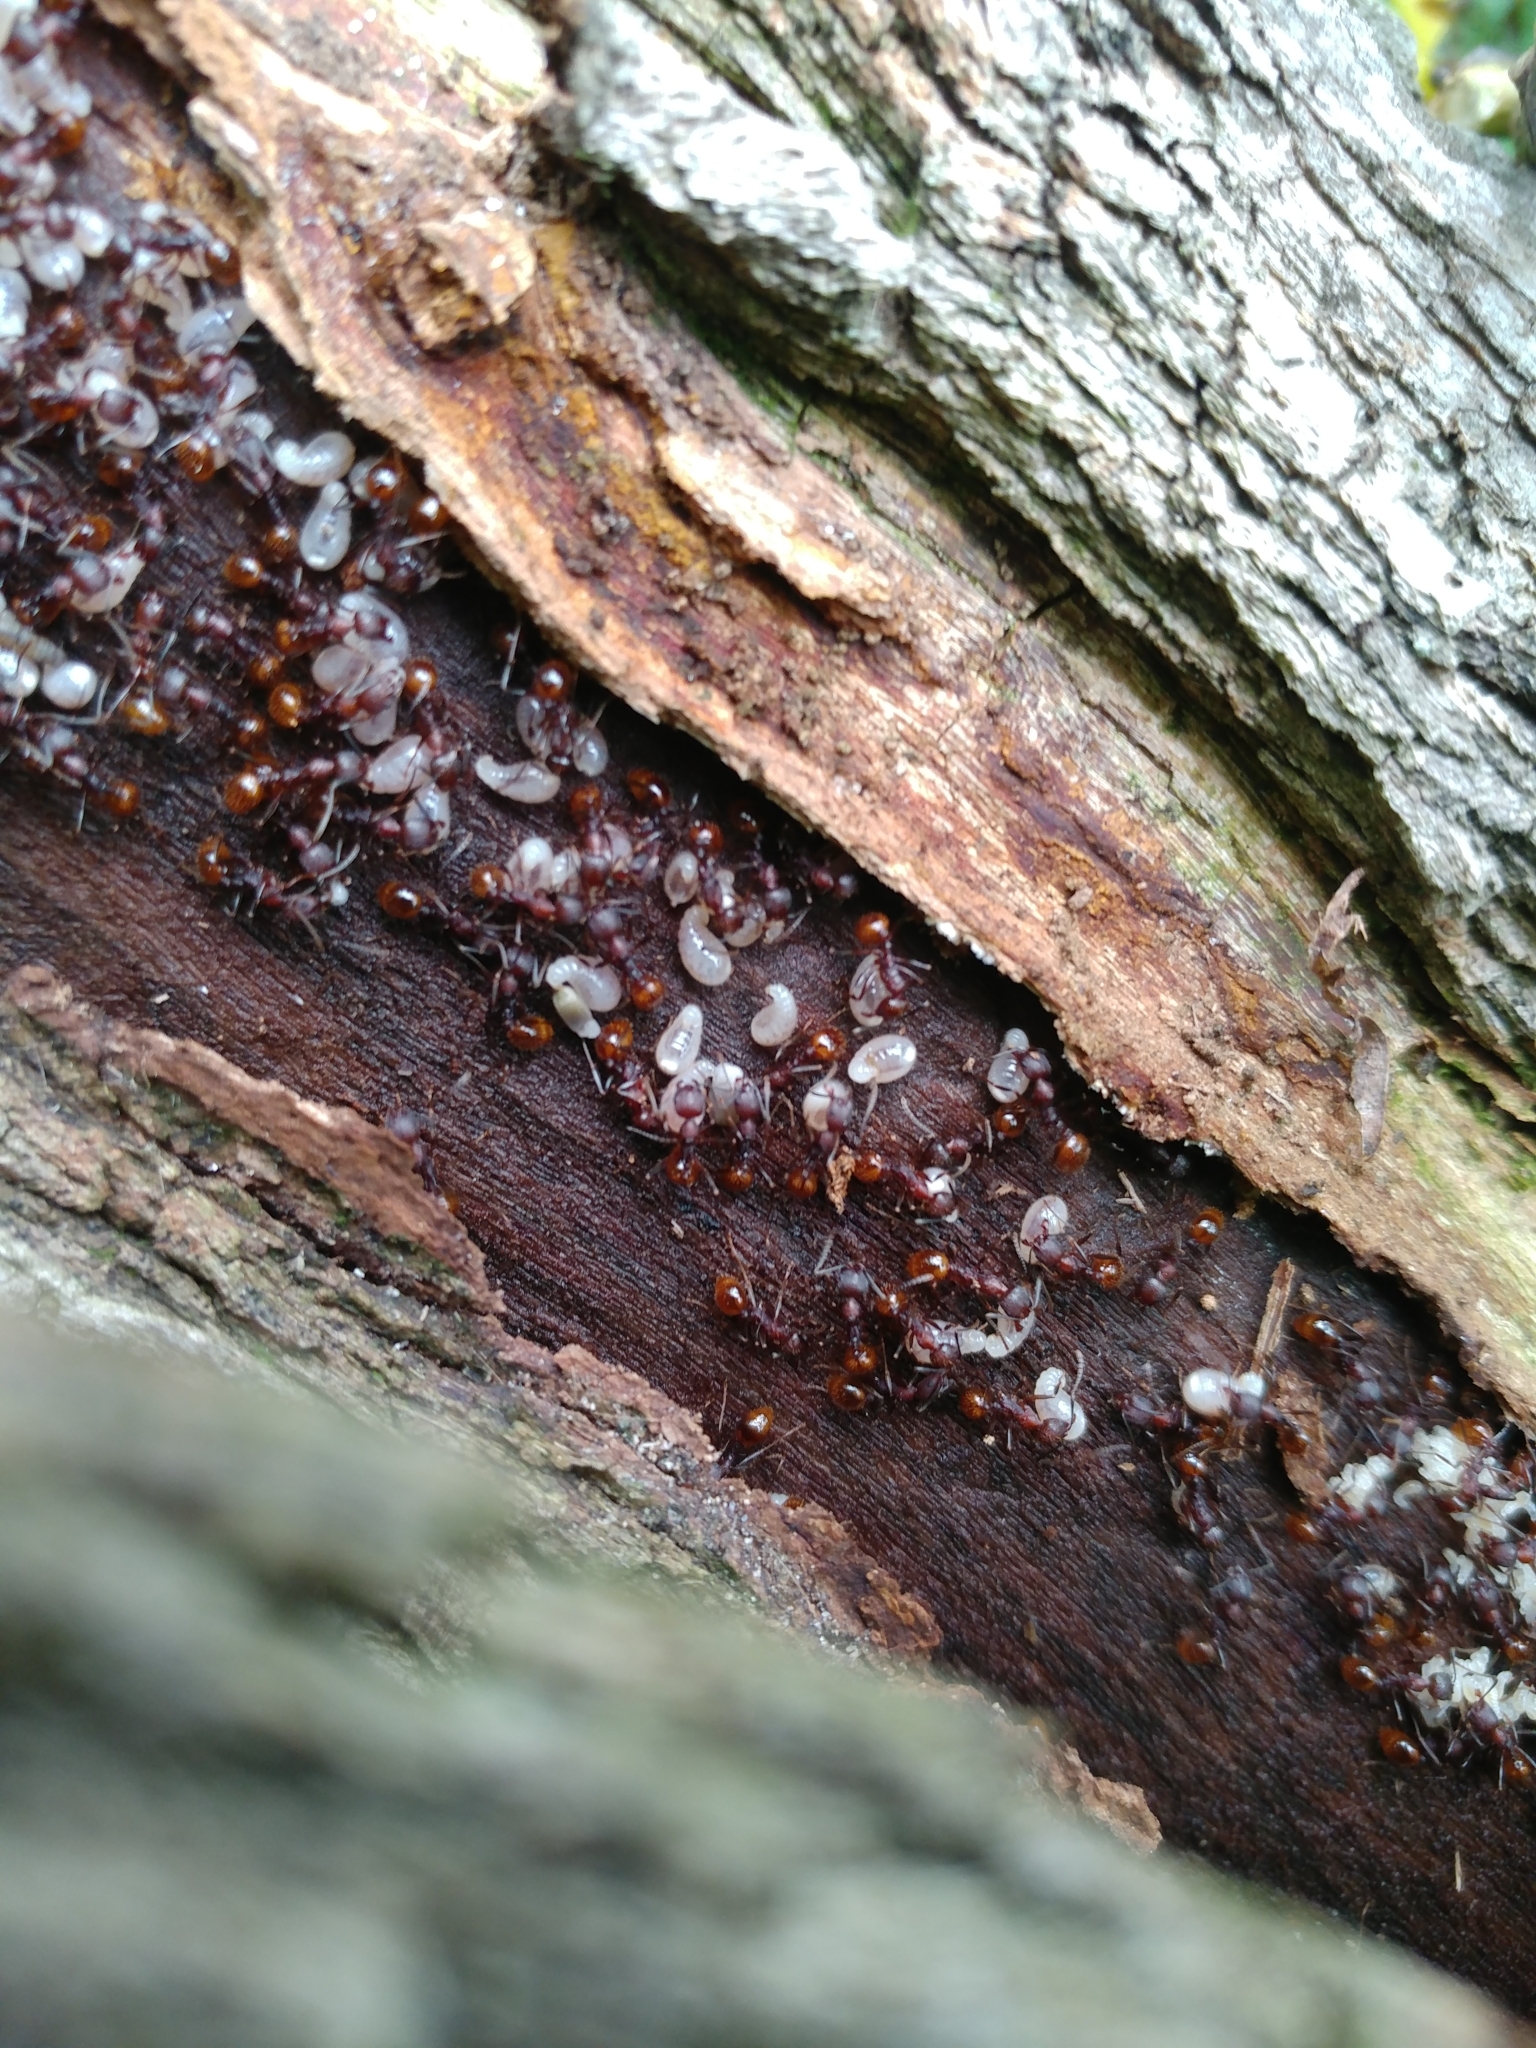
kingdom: Animalia
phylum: Arthropoda
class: Insecta
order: Hymenoptera
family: Formicidae
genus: Aphaenogaster
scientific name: Aphaenogaster fulva
